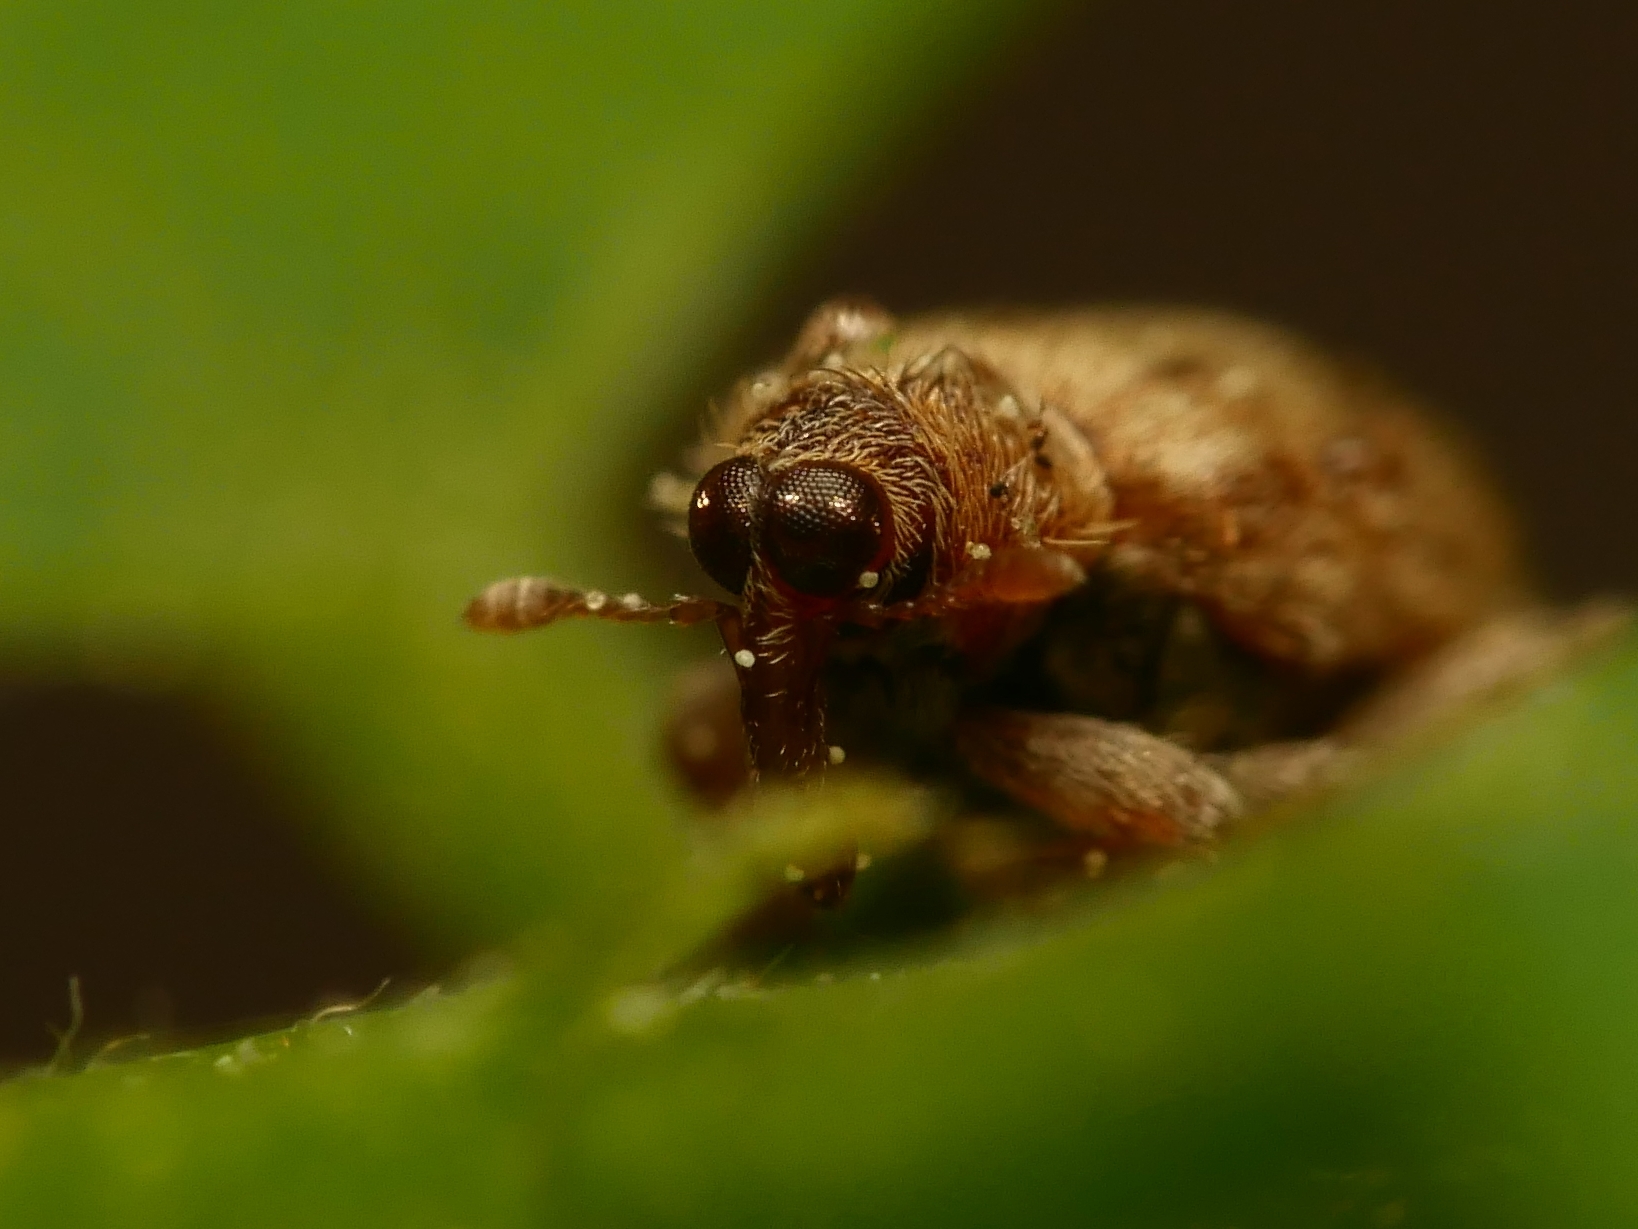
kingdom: Animalia
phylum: Arthropoda
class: Insecta
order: Coleoptera
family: Curculionidae
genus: Orchestes
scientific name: Orchestes quercus
